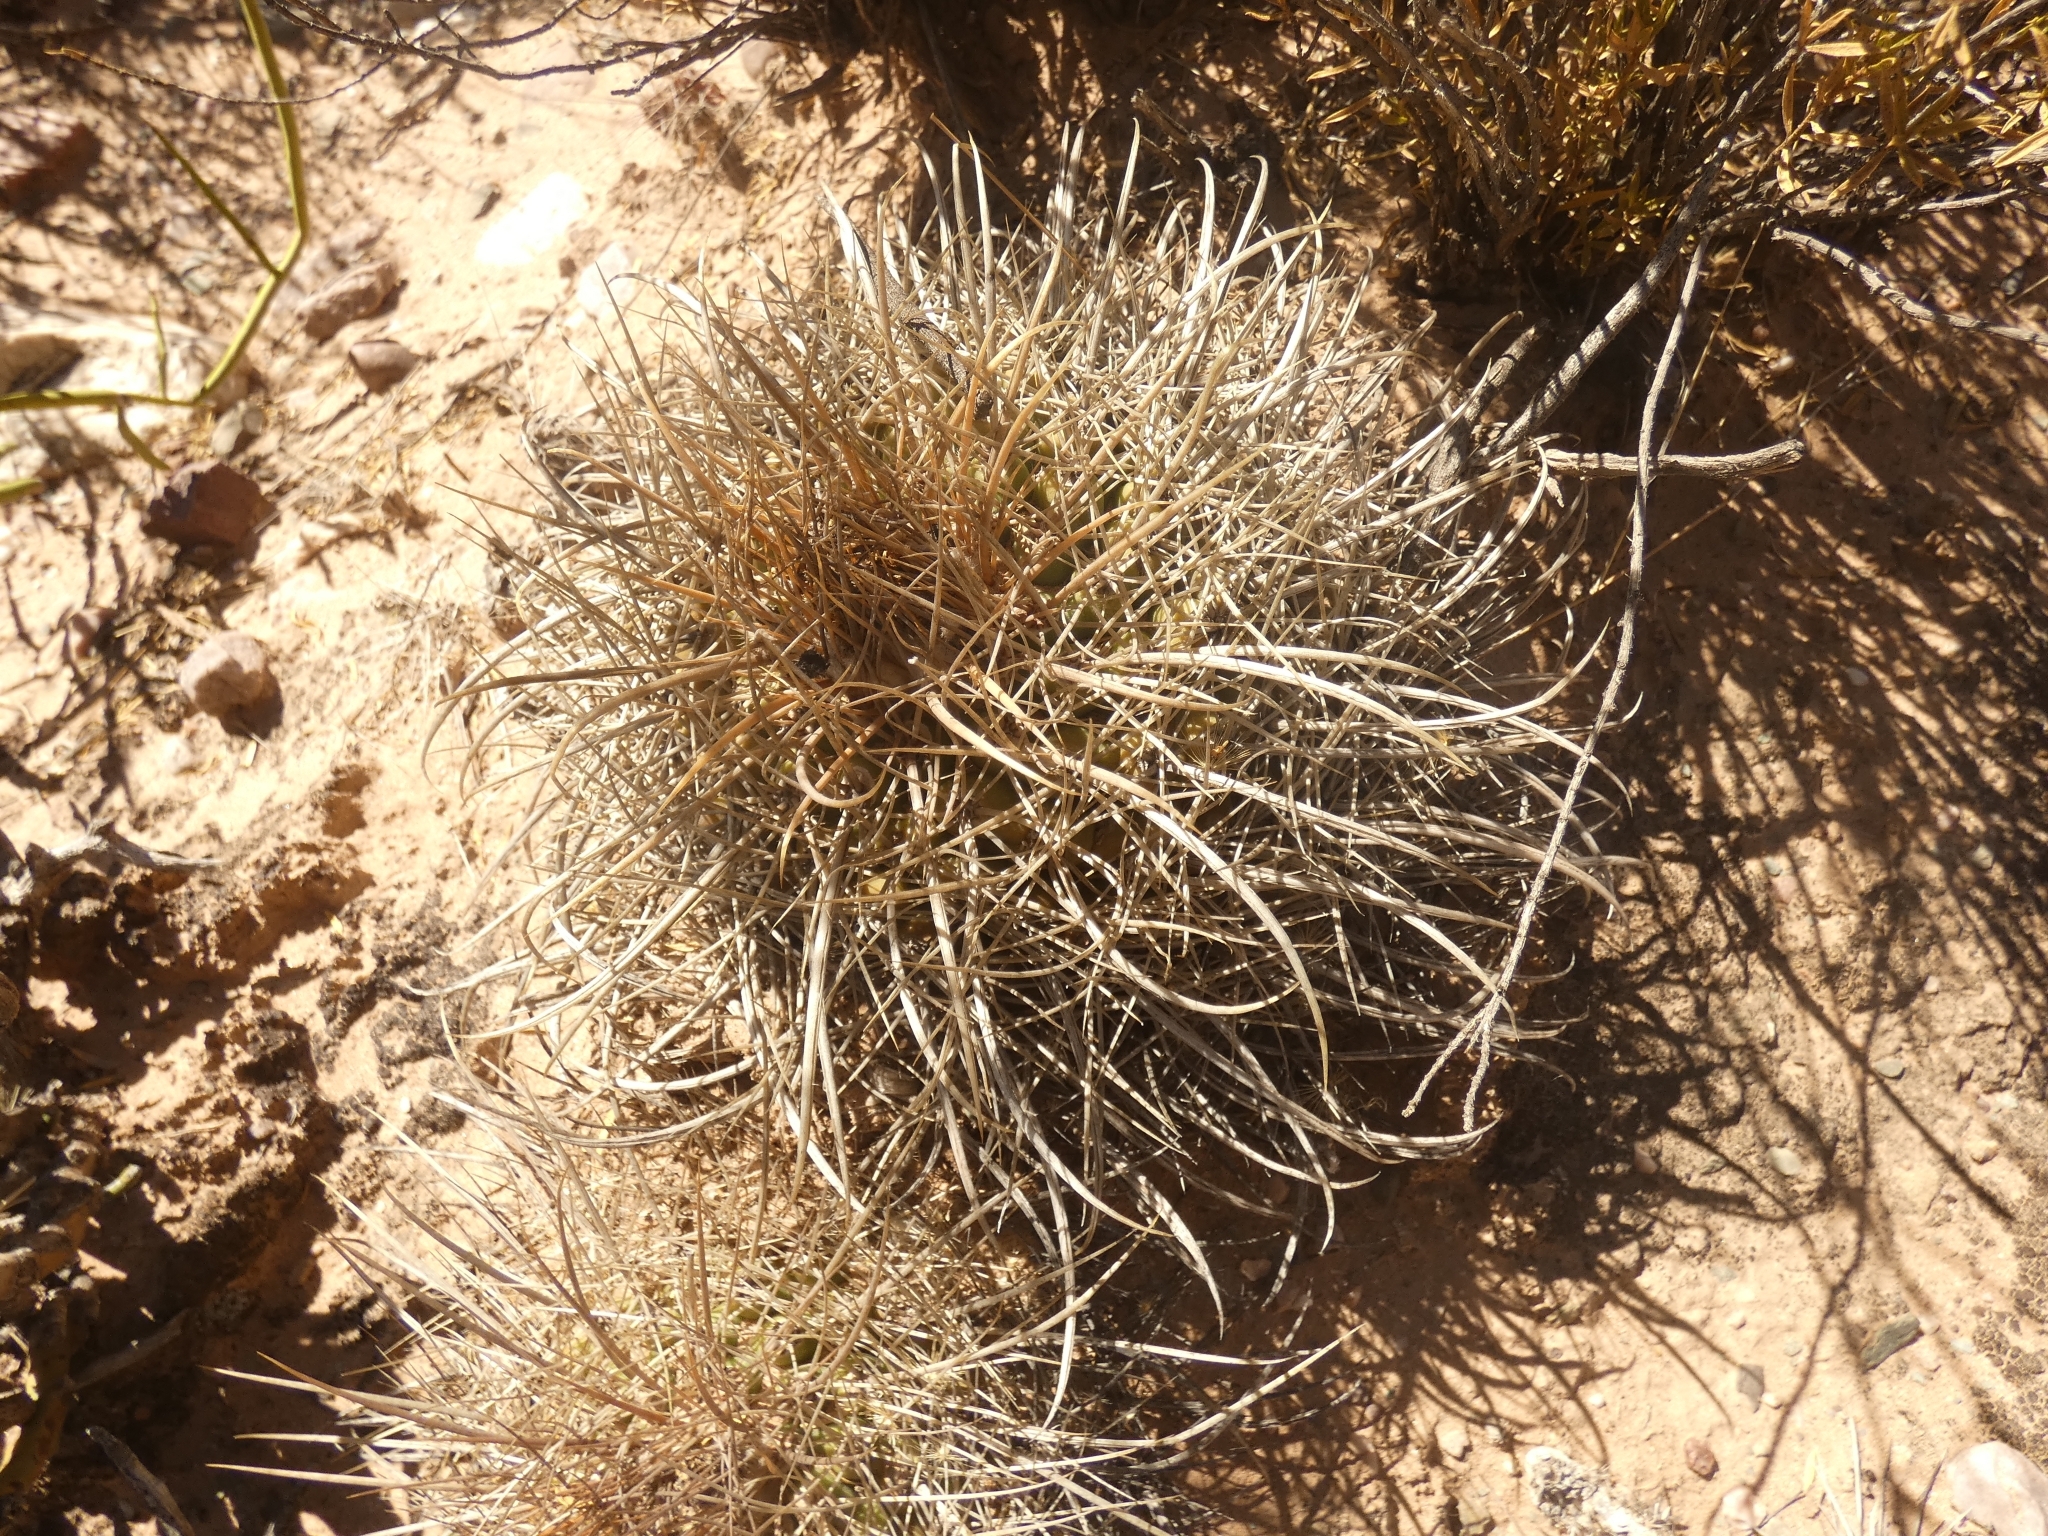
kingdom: Plantae
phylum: Tracheophyta
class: Magnoliopsida
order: Caryophyllales
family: Cactaceae
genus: Parodia
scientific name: Parodia maassii
